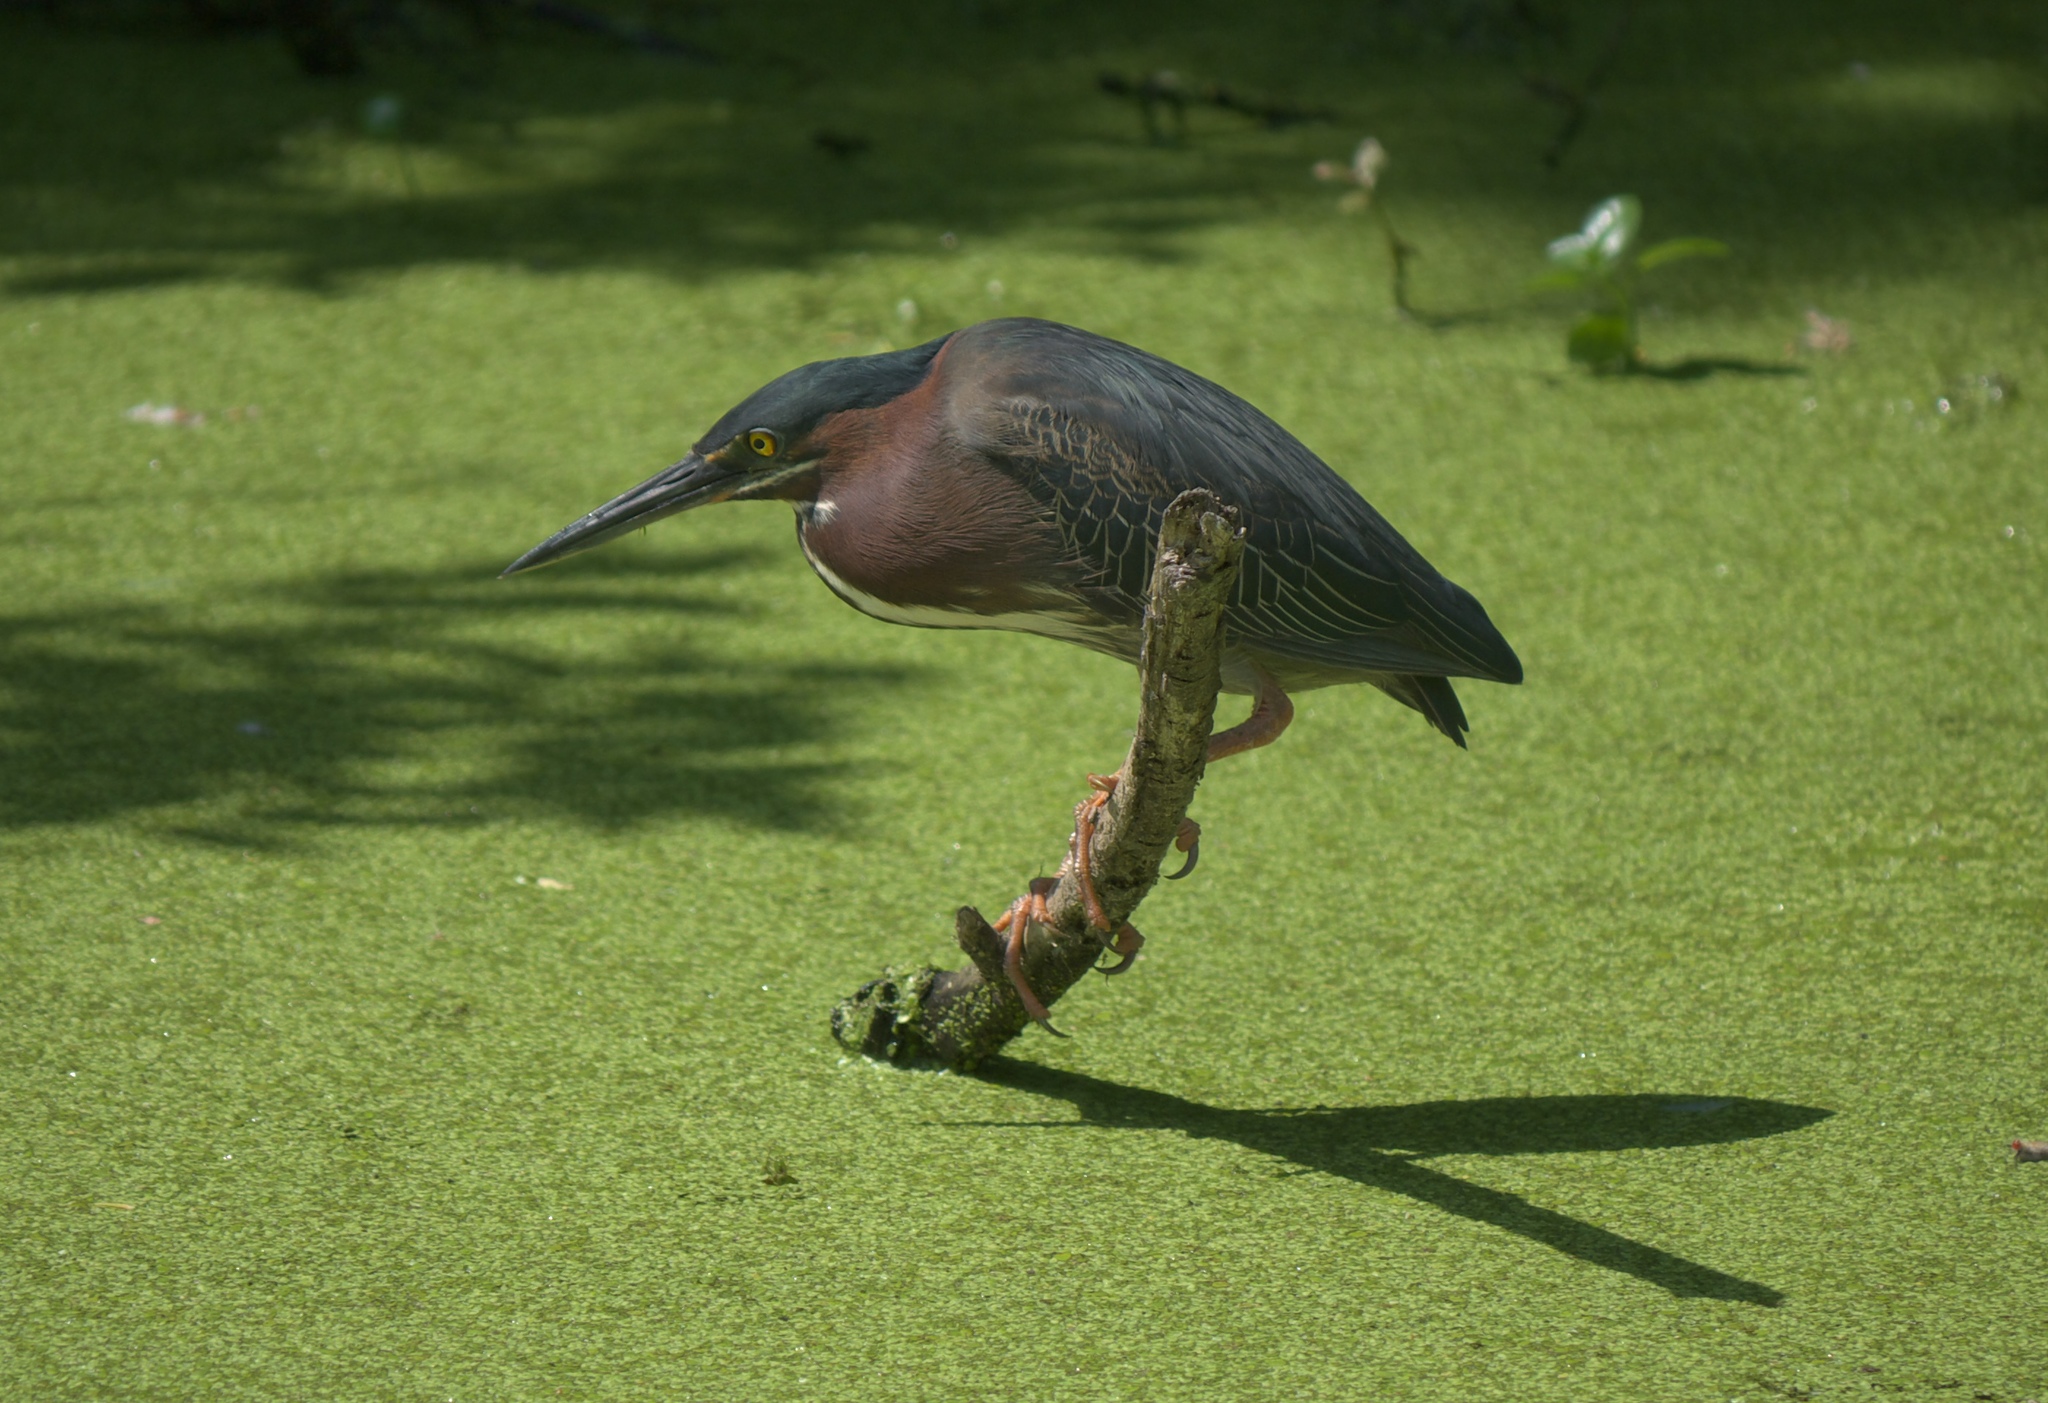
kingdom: Animalia
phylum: Chordata
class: Aves
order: Pelecaniformes
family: Ardeidae
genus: Butorides
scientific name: Butorides virescens
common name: Green heron
